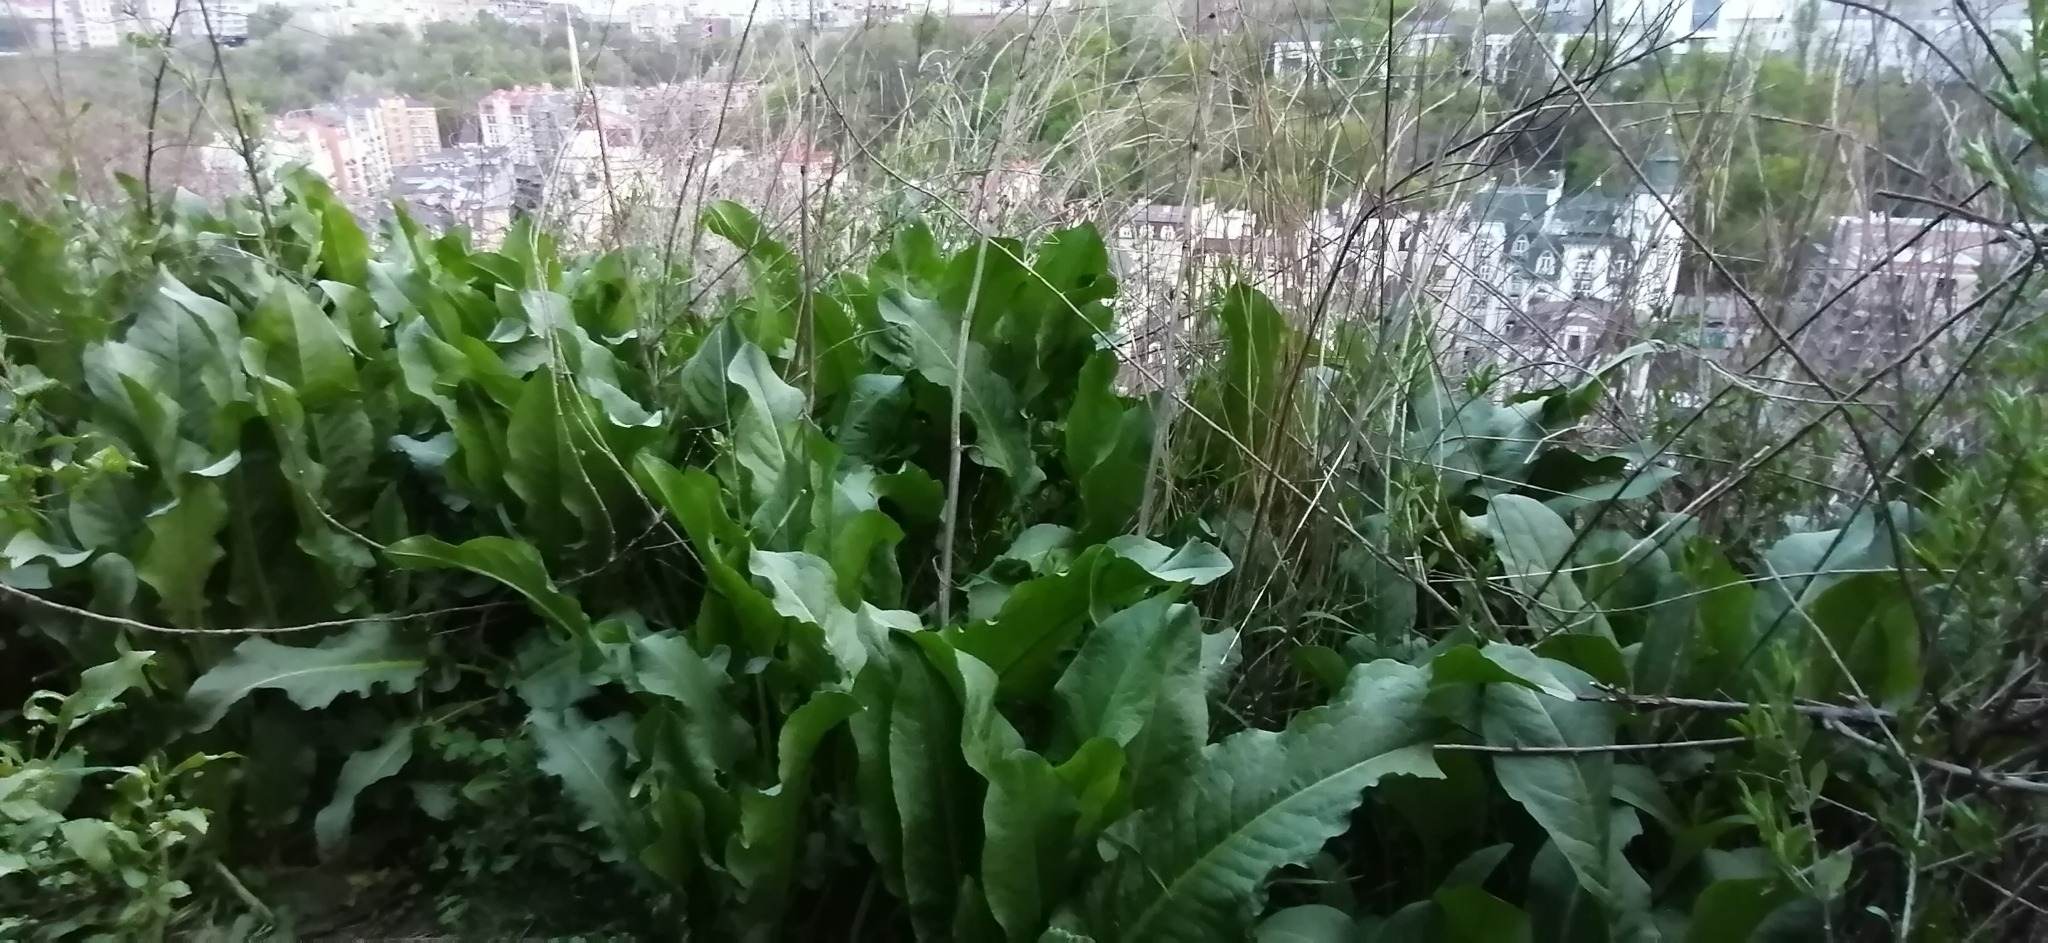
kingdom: Plantae
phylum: Tracheophyta
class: Magnoliopsida
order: Caryophyllales
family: Polygonaceae
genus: Rumex
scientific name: Rumex obtusifolius
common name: Bitter dock
